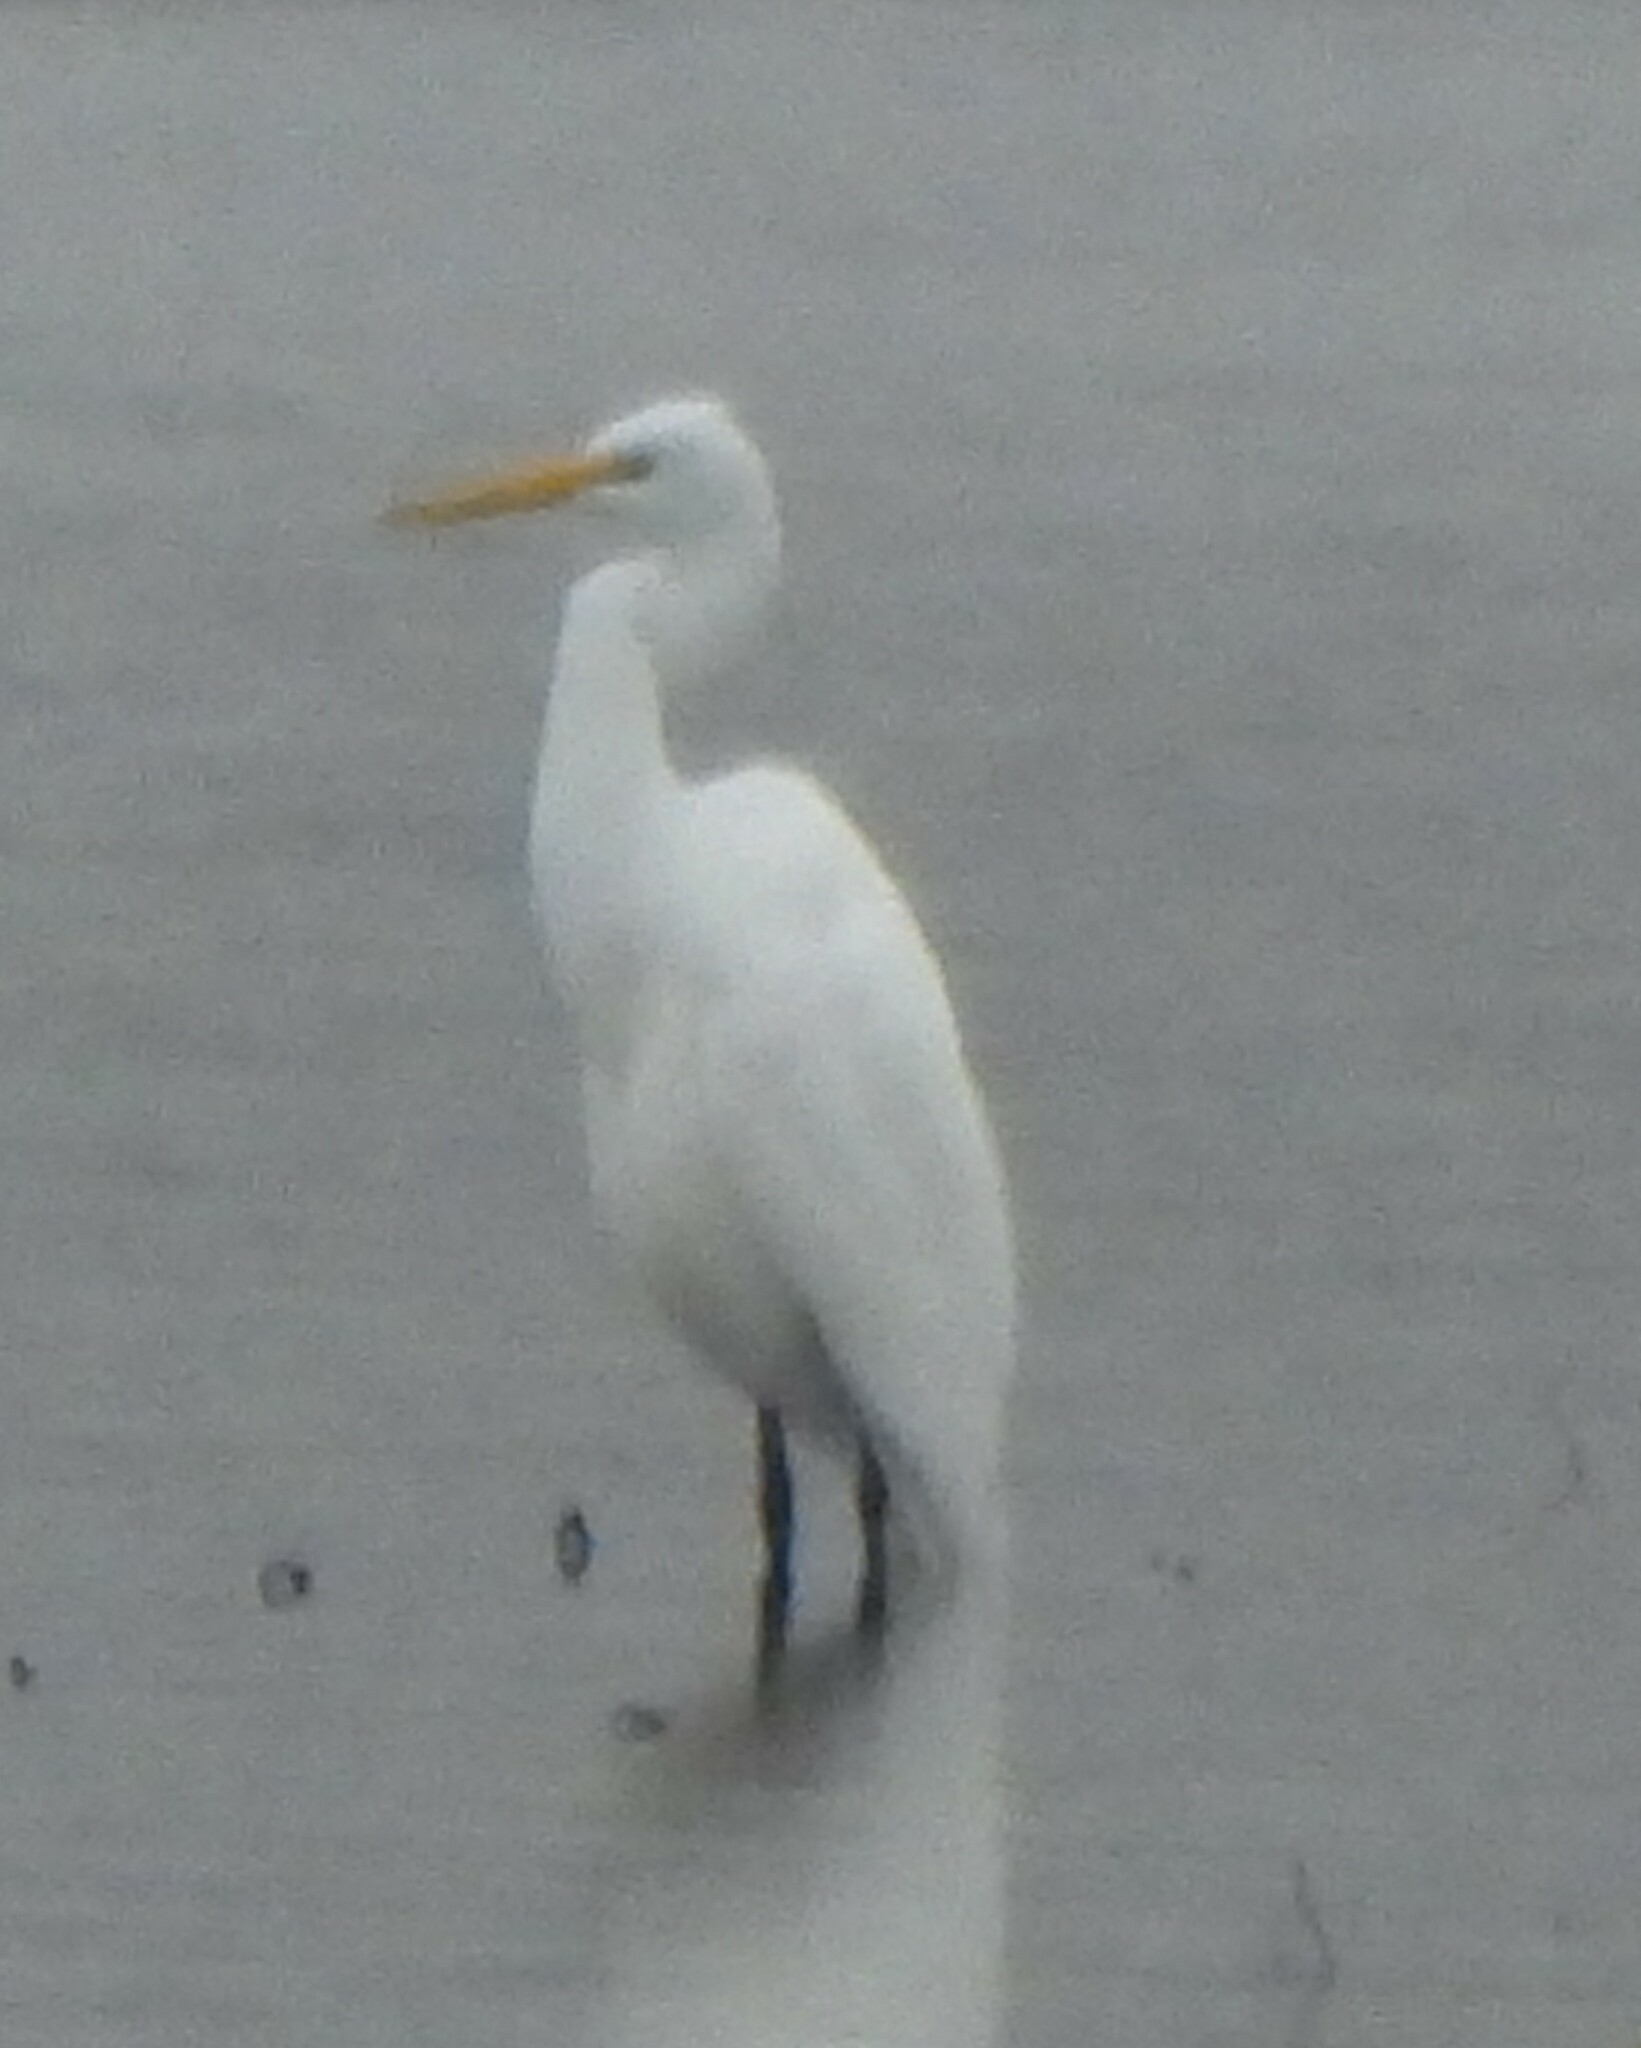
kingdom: Animalia
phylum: Chordata
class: Aves
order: Pelecaniformes
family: Ardeidae
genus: Ardea
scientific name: Ardea alba
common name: Great egret
